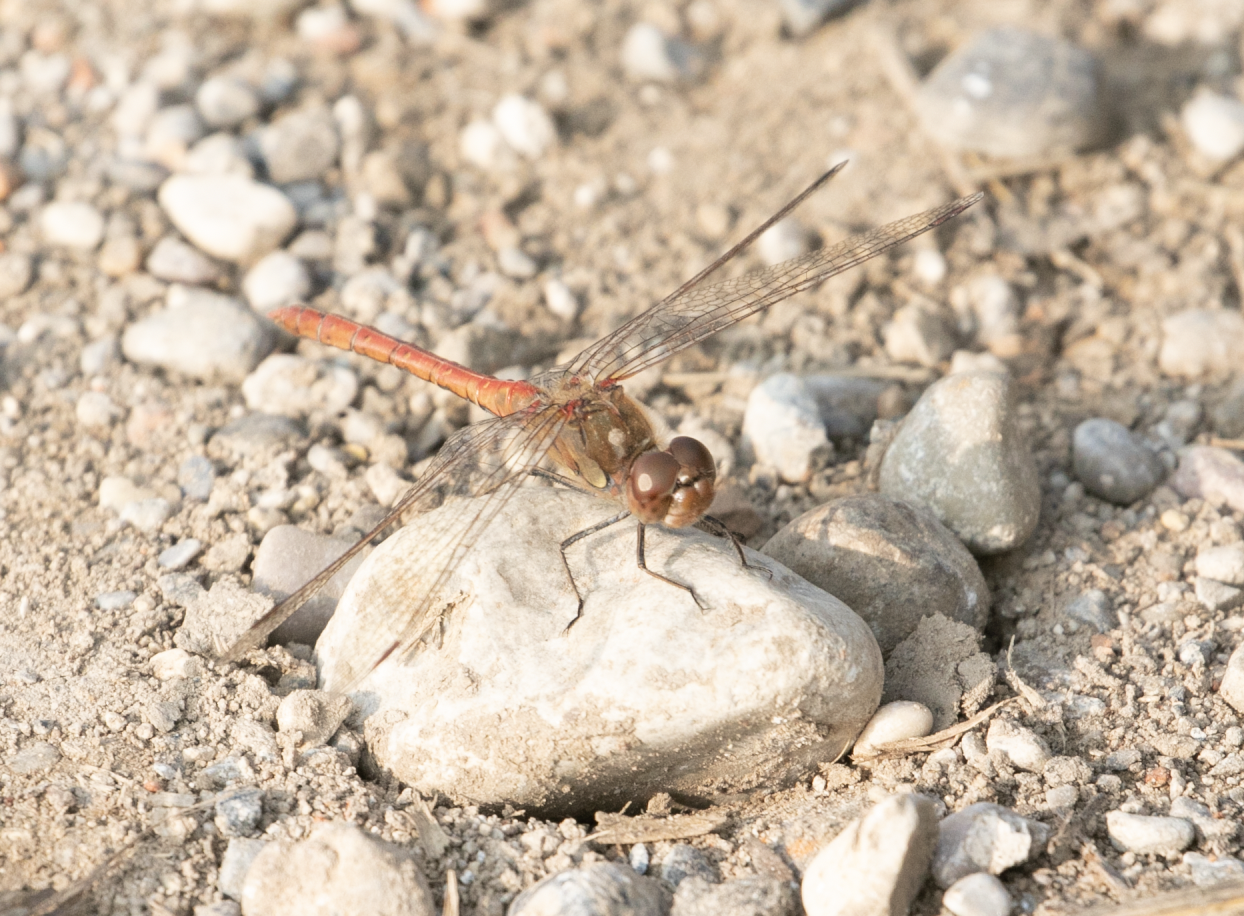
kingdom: Animalia
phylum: Arthropoda
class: Insecta
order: Odonata
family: Libellulidae
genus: Sympetrum
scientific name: Sympetrum striolatum
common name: Common darter
